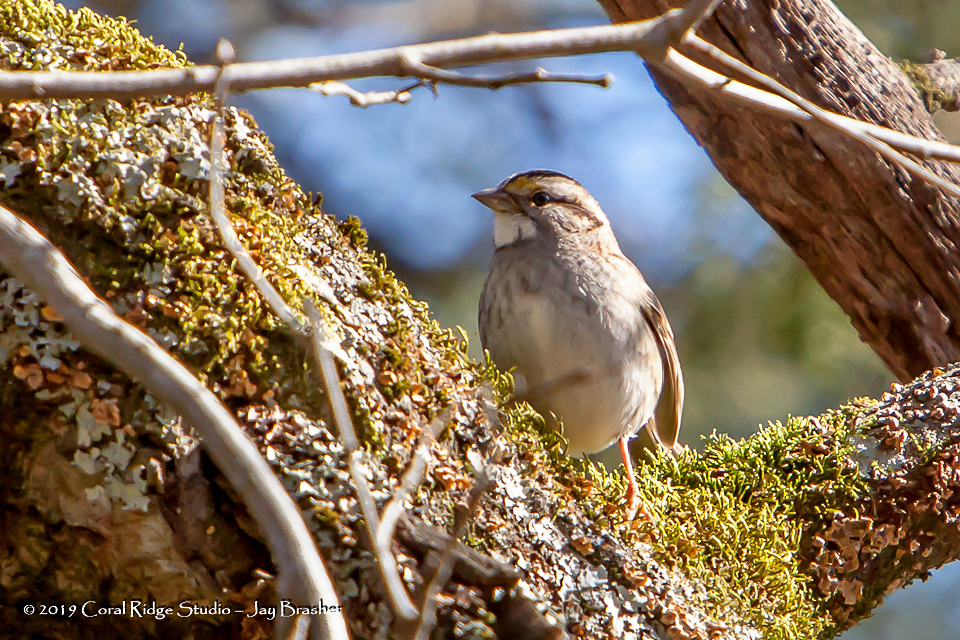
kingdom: Animalia
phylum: Chordata
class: Aves
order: Passeriformes
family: Passerellidae
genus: Zonotrichia
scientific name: Zonotrichia albicollis
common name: White-throated sparrow
